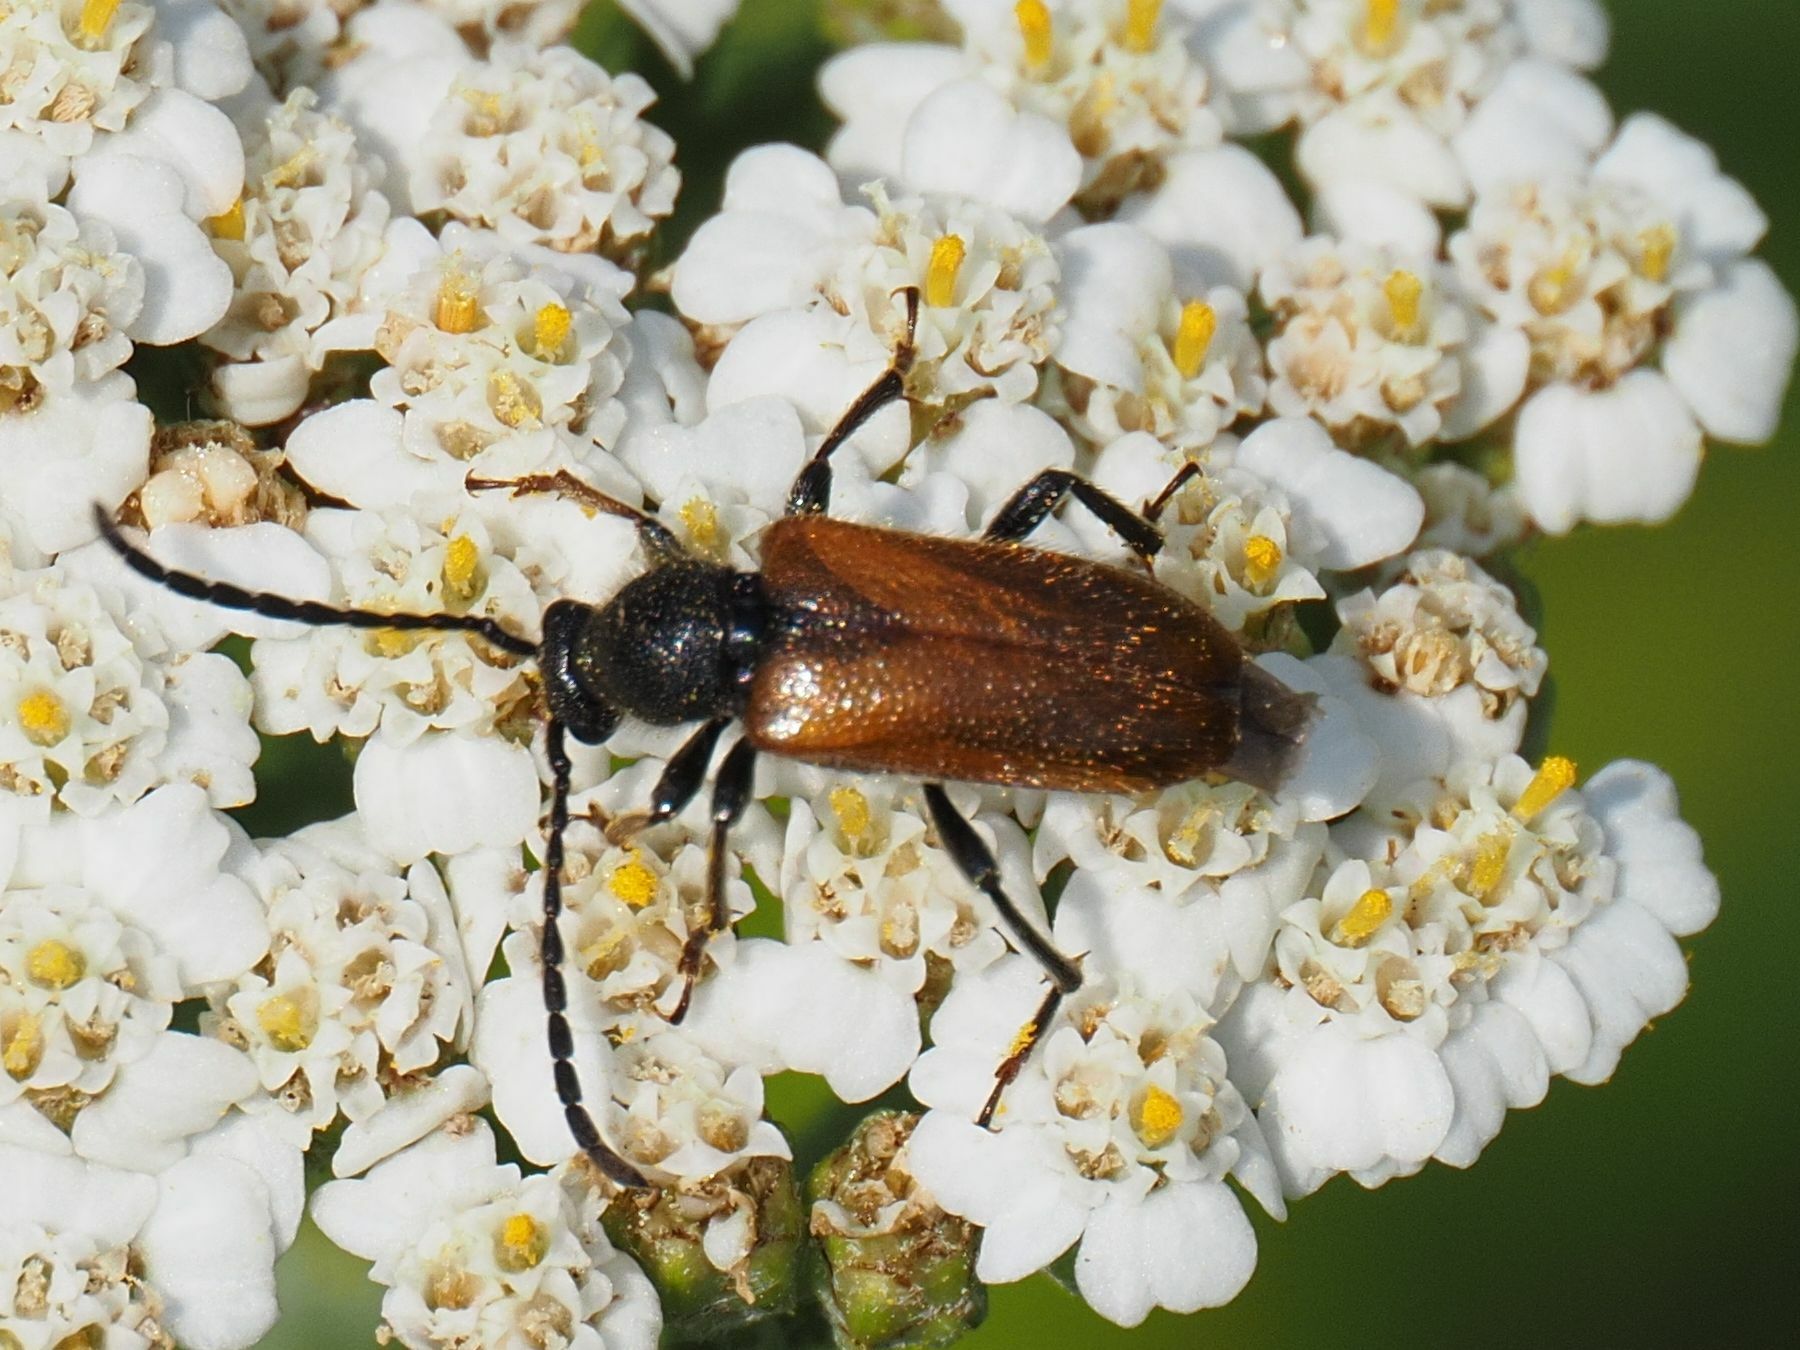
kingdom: Animalia
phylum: Arthropoda
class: Insecta
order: Coleoptera
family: Cerambycidae
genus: Pseudovadonia
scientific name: Pseudovadonia livida
